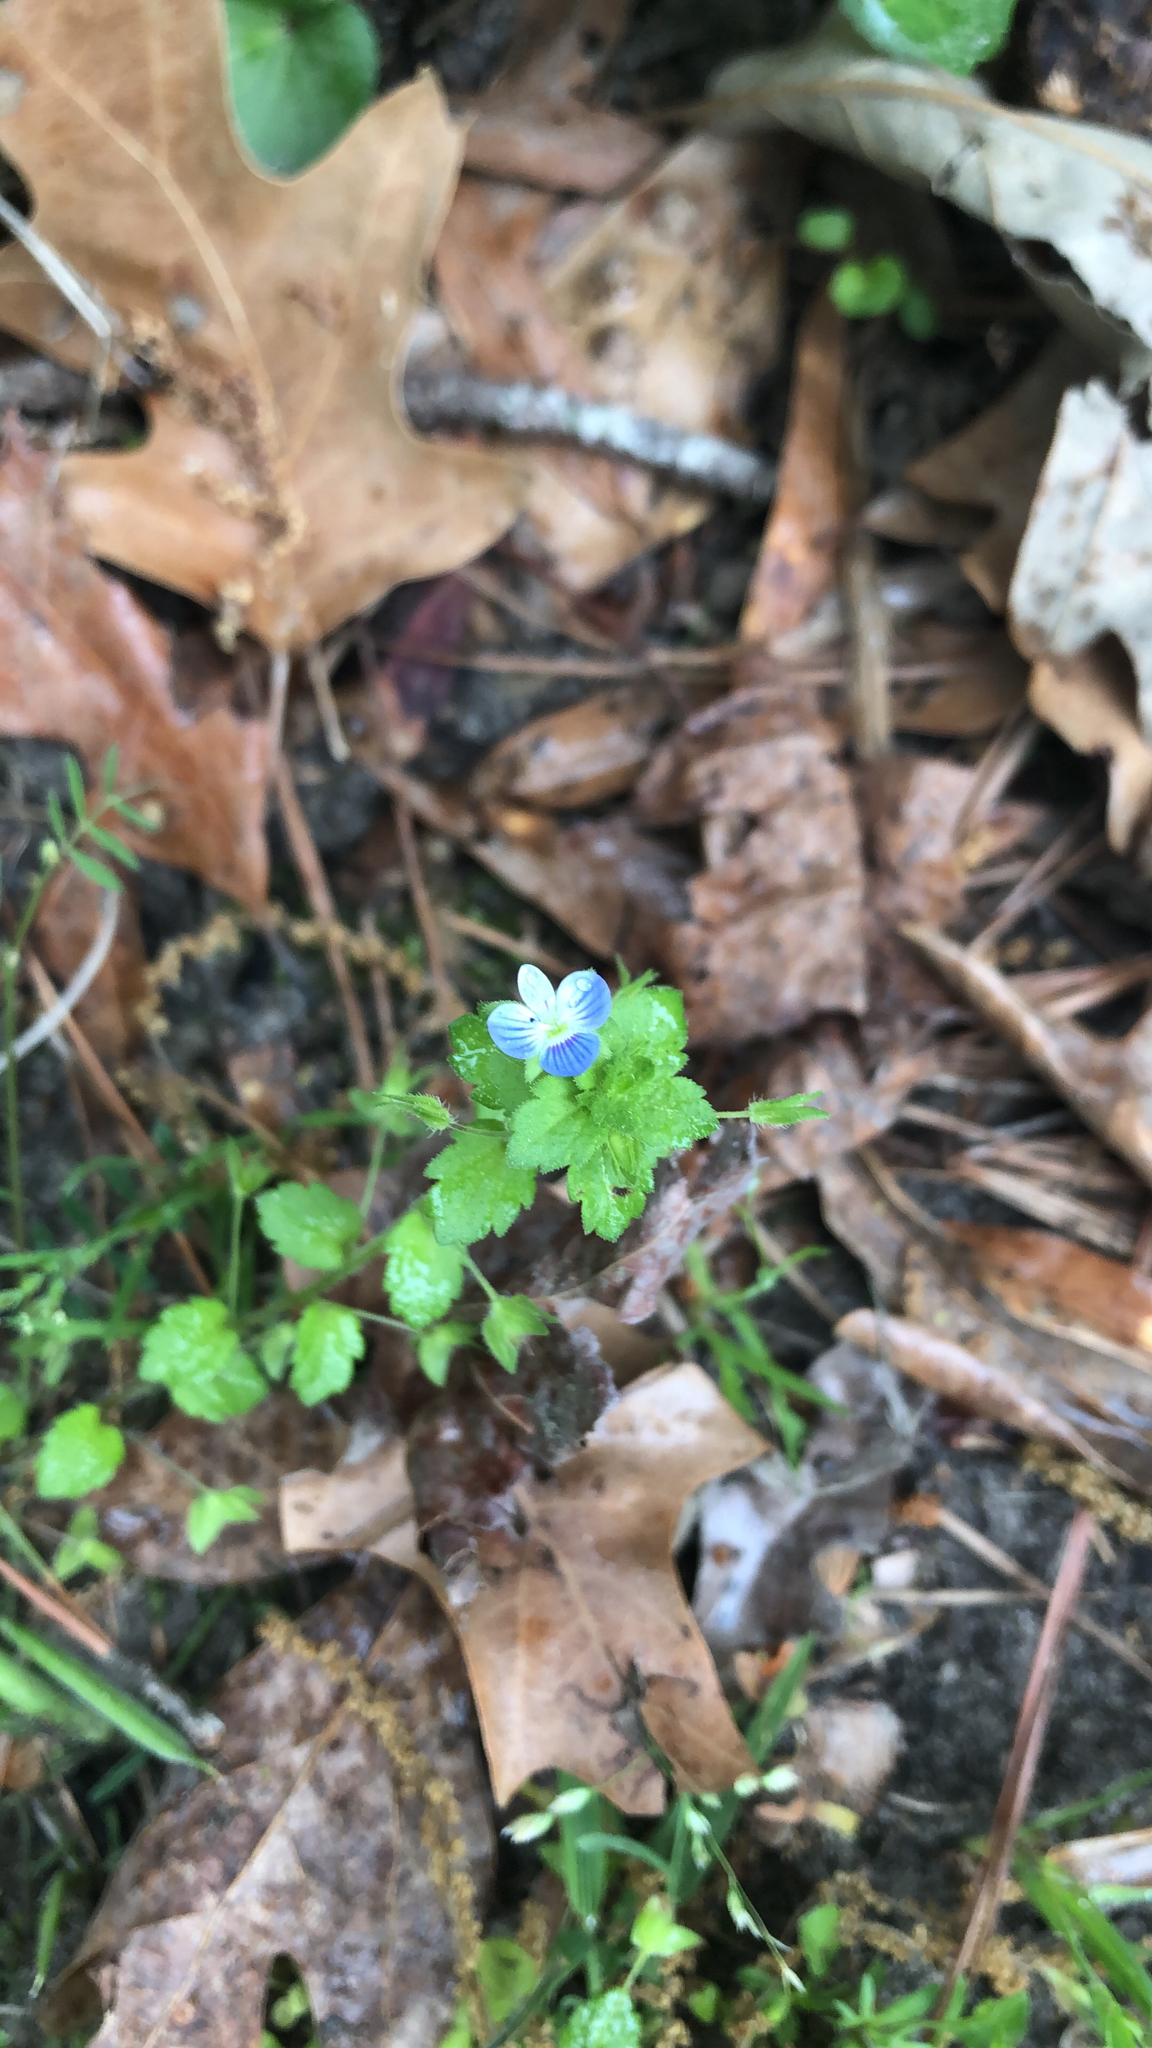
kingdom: Plantae
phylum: Tracheophyta
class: Magnoliopsida
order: Lamiales
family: Plantaginaceae
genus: Veronica
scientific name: Veronica persica
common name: Common field-speedwell
